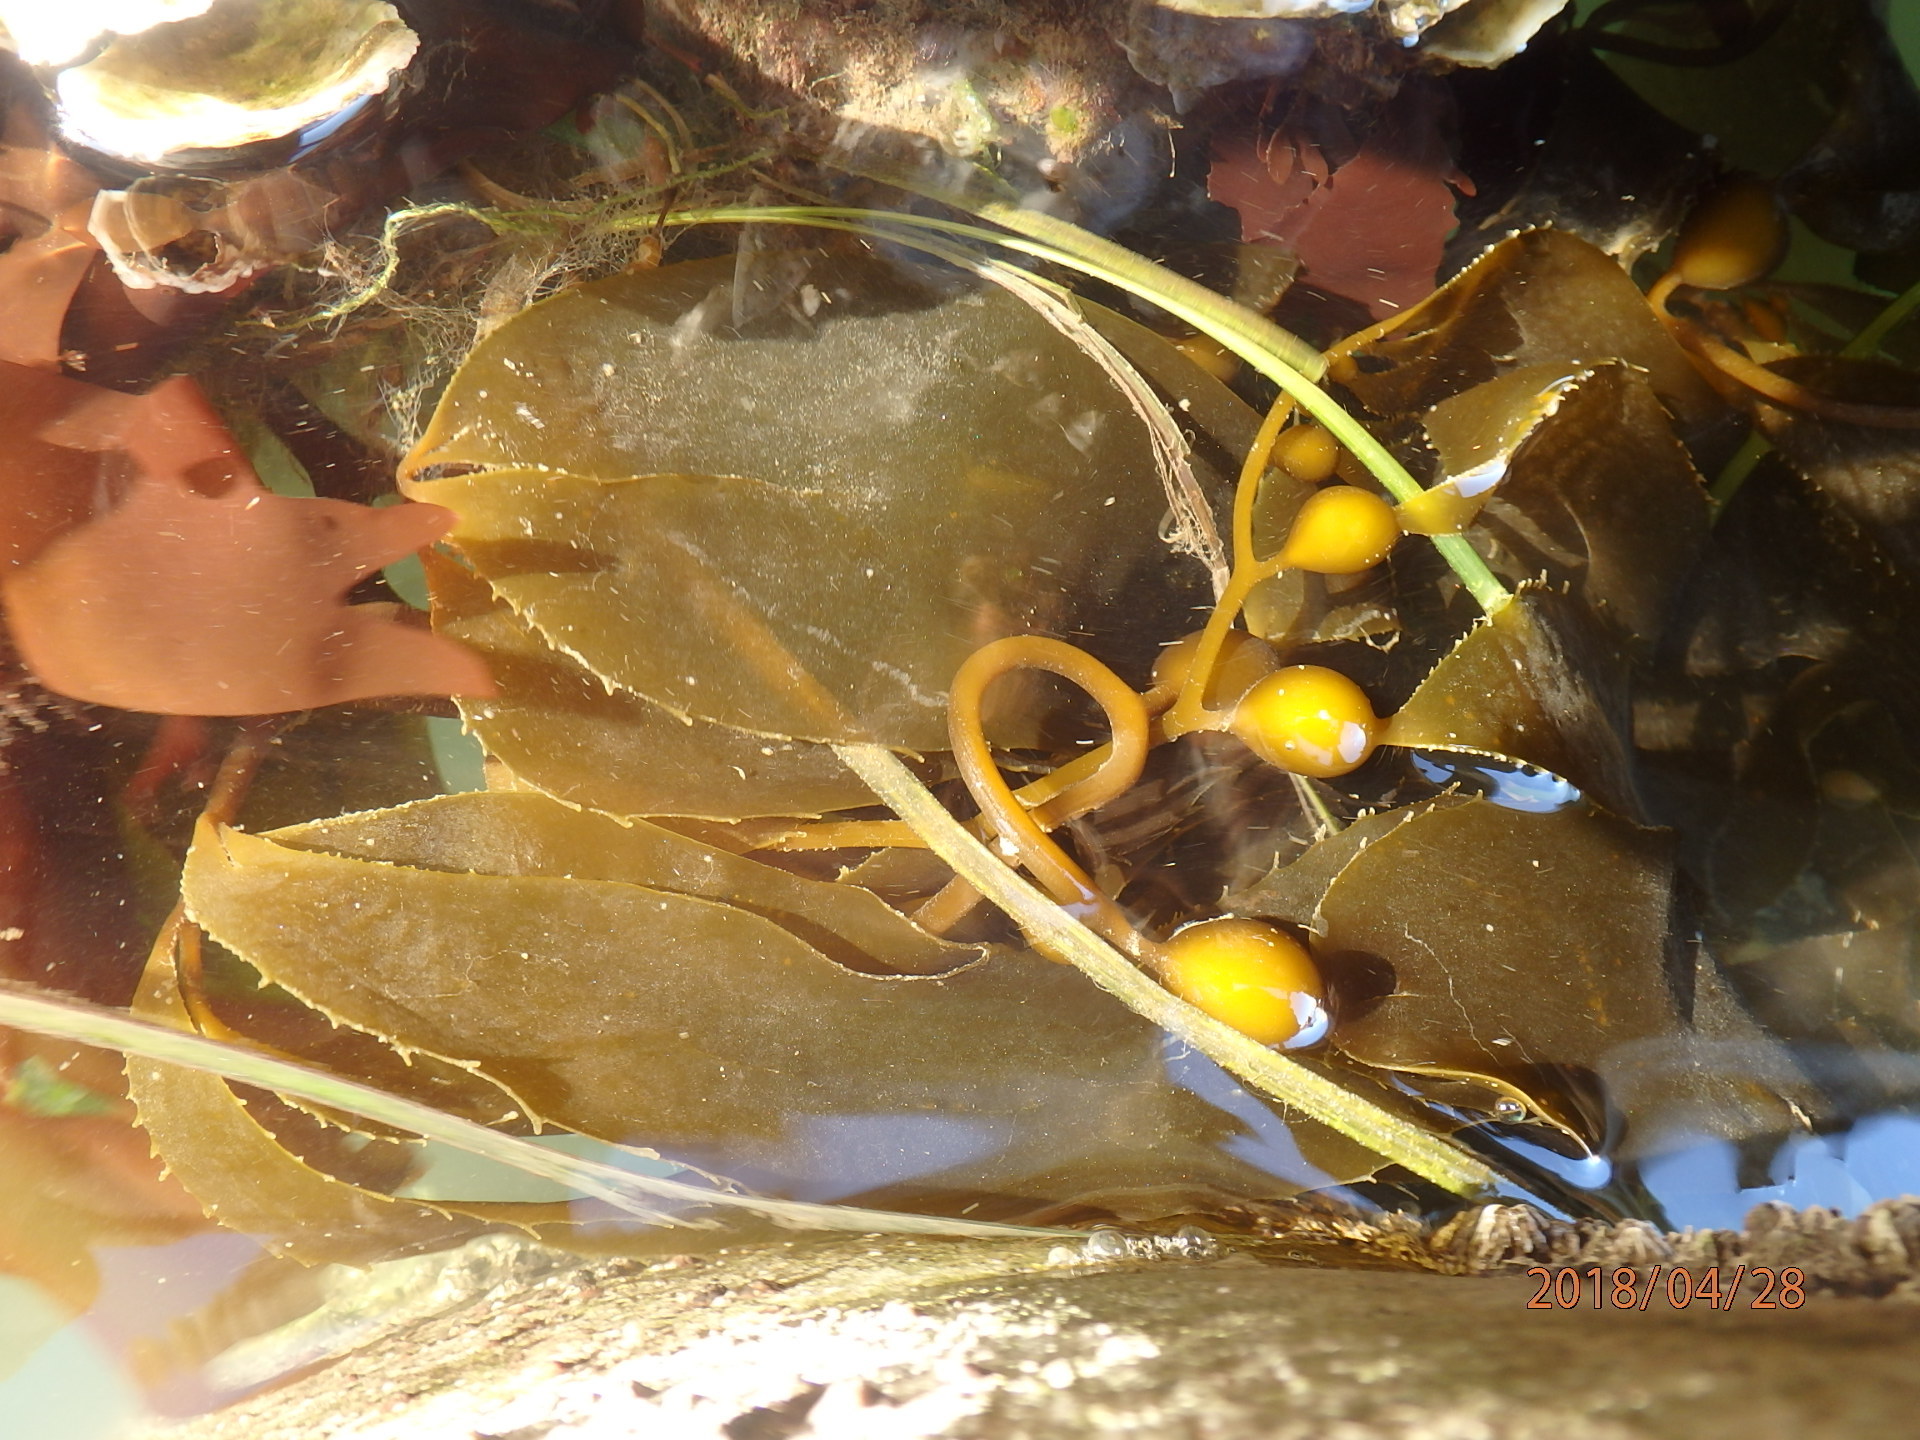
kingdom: Chromista
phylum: Ochrophyta
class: Phaeophyceae
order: Laminariales
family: Laminariaceae
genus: Macrocystis
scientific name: Macrocystis pyrifera
